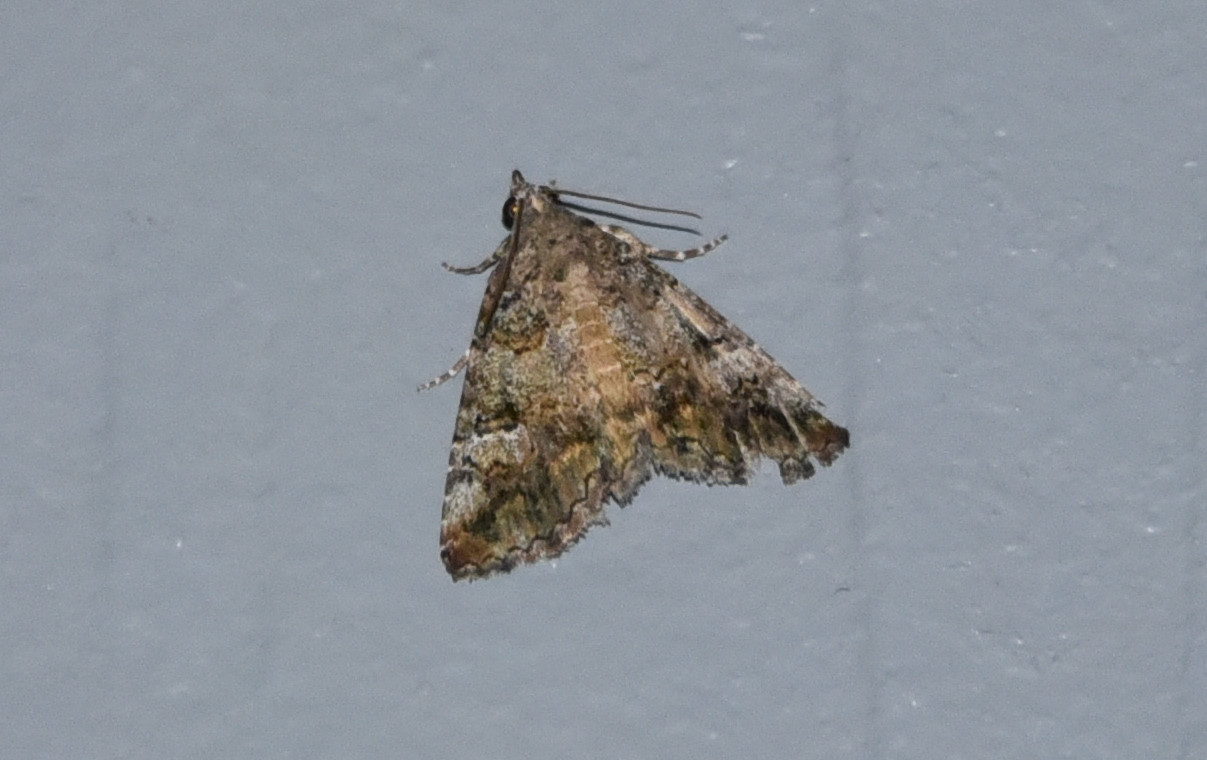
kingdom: Animalia
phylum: Arthropoda
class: Insecta
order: Lepidoptera
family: Erebidae
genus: Eubolina
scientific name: Eubolina impartialis
